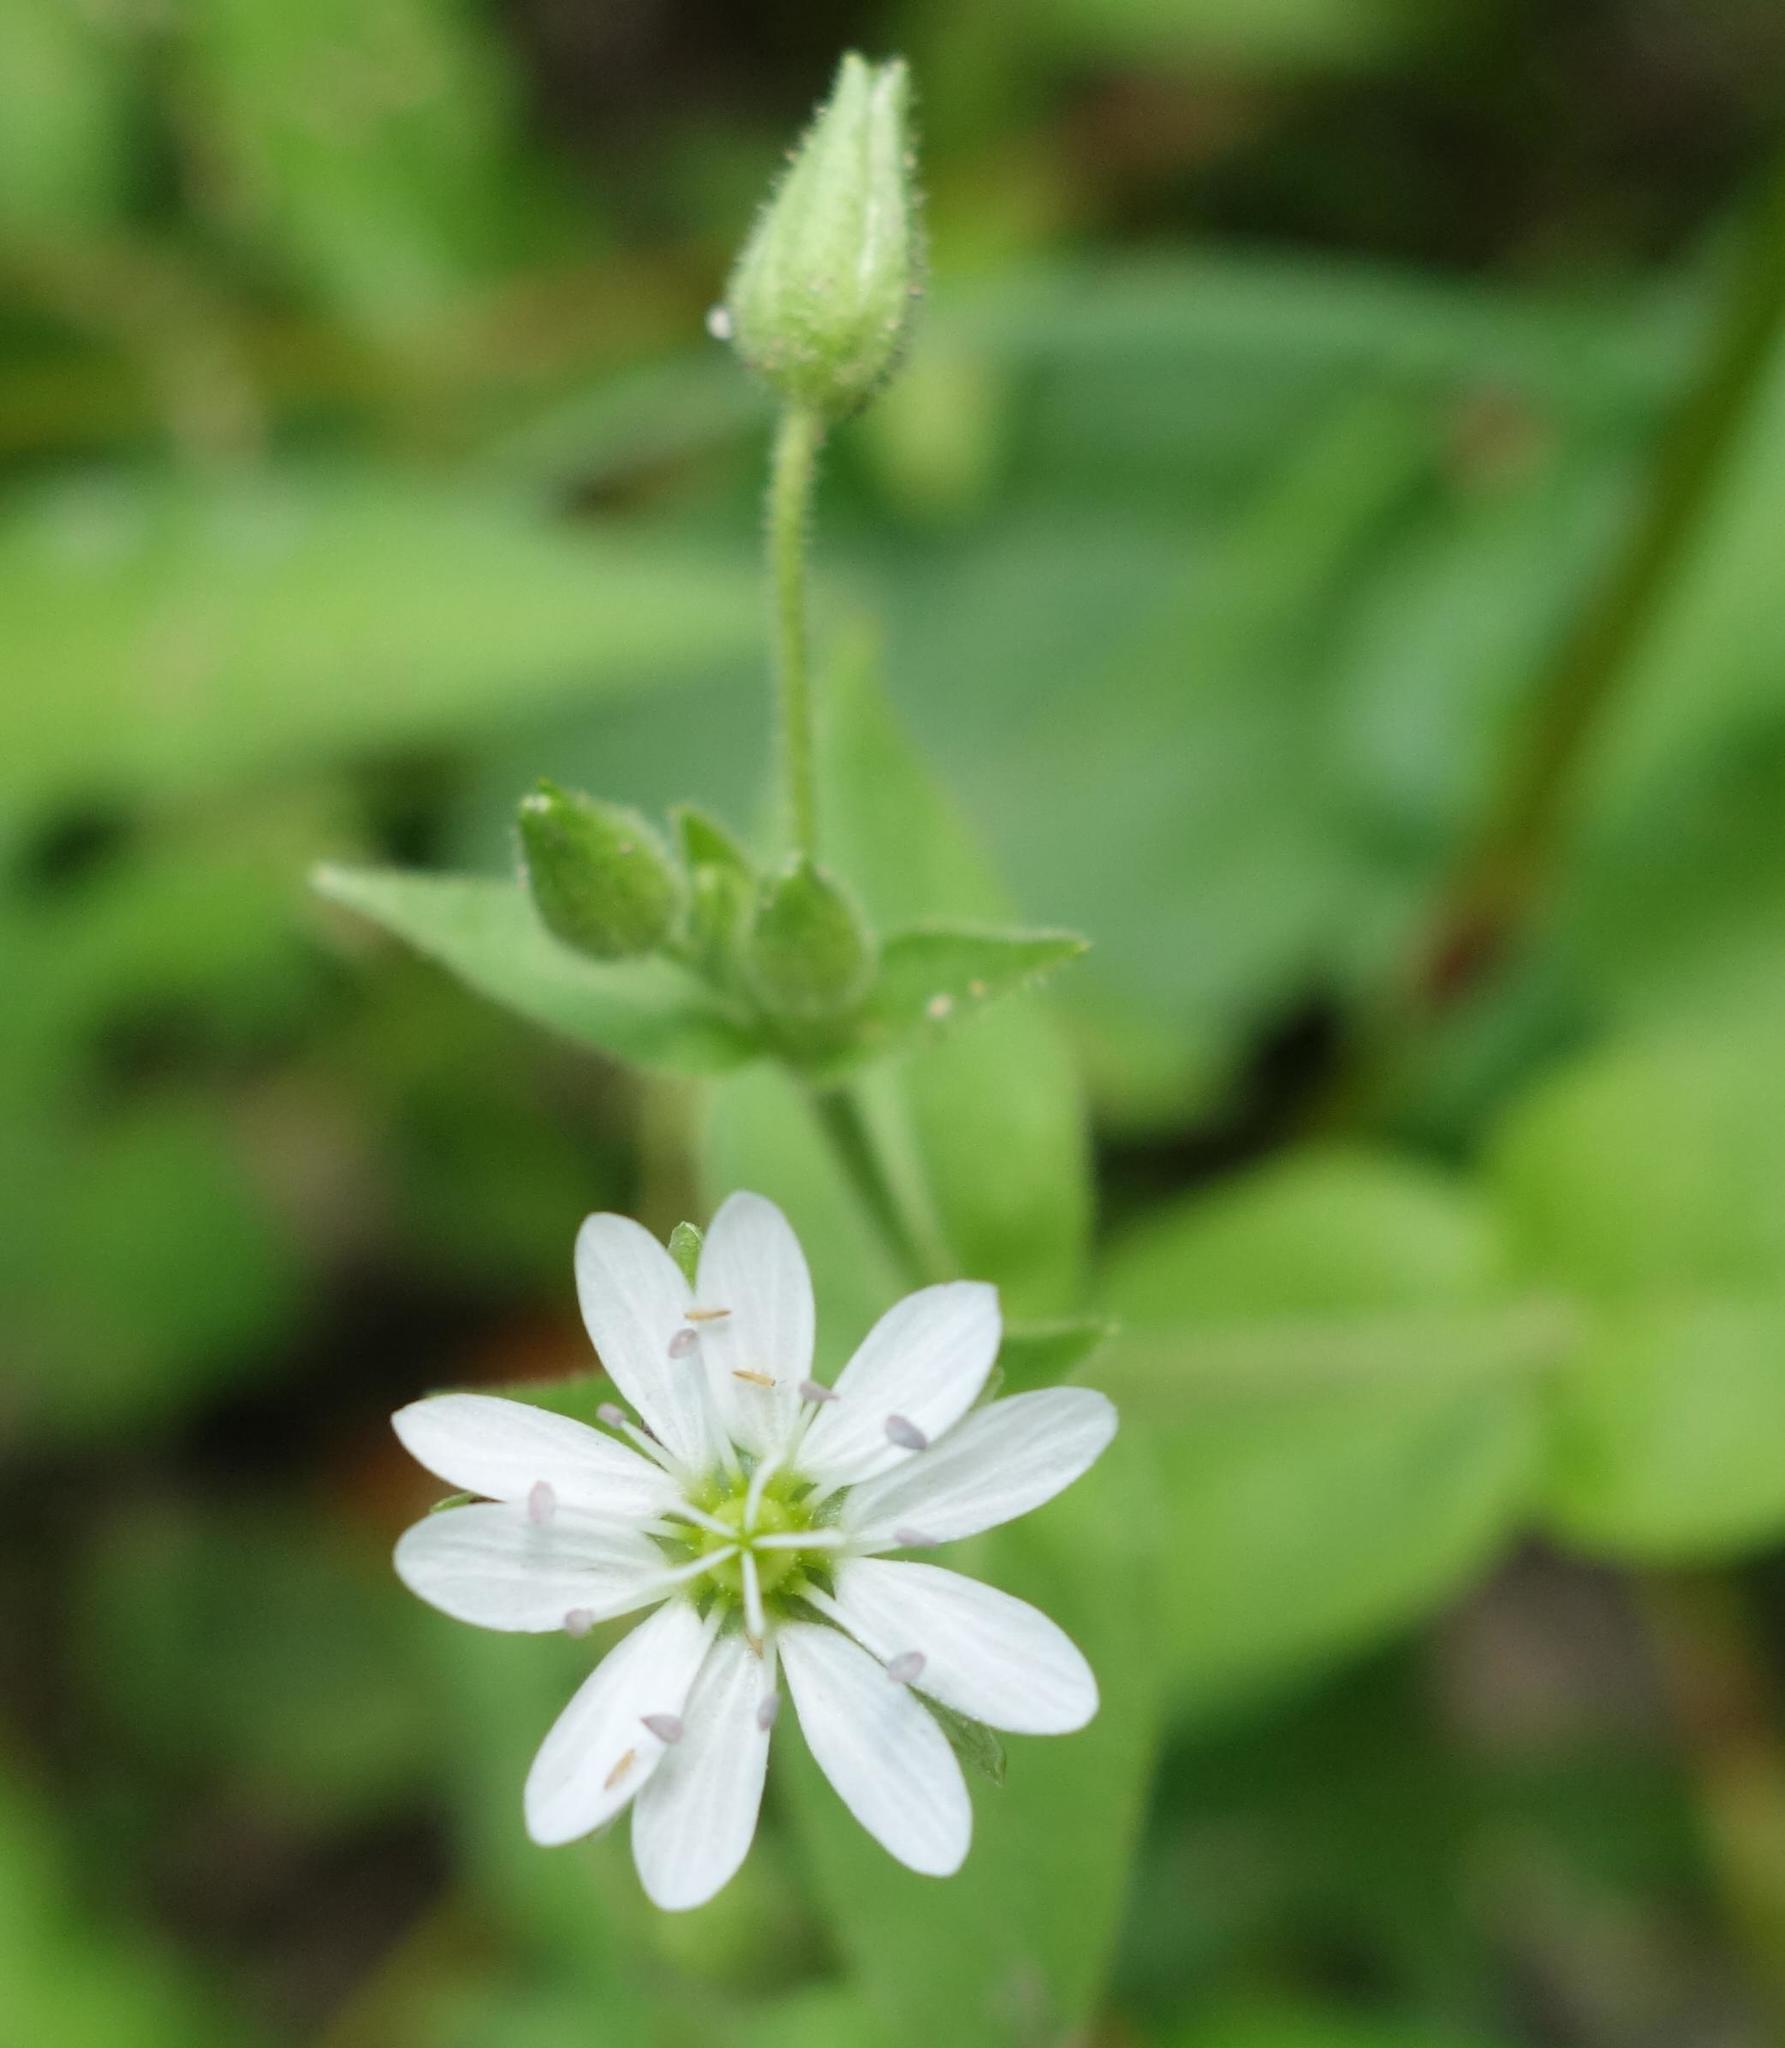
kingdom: Plantae
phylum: Tracheophyta
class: Magnoliopsida
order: Caryophyllales
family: Caryophyllaceae
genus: Stellaria
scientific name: Stellaria aquatica
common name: Water chickweed
